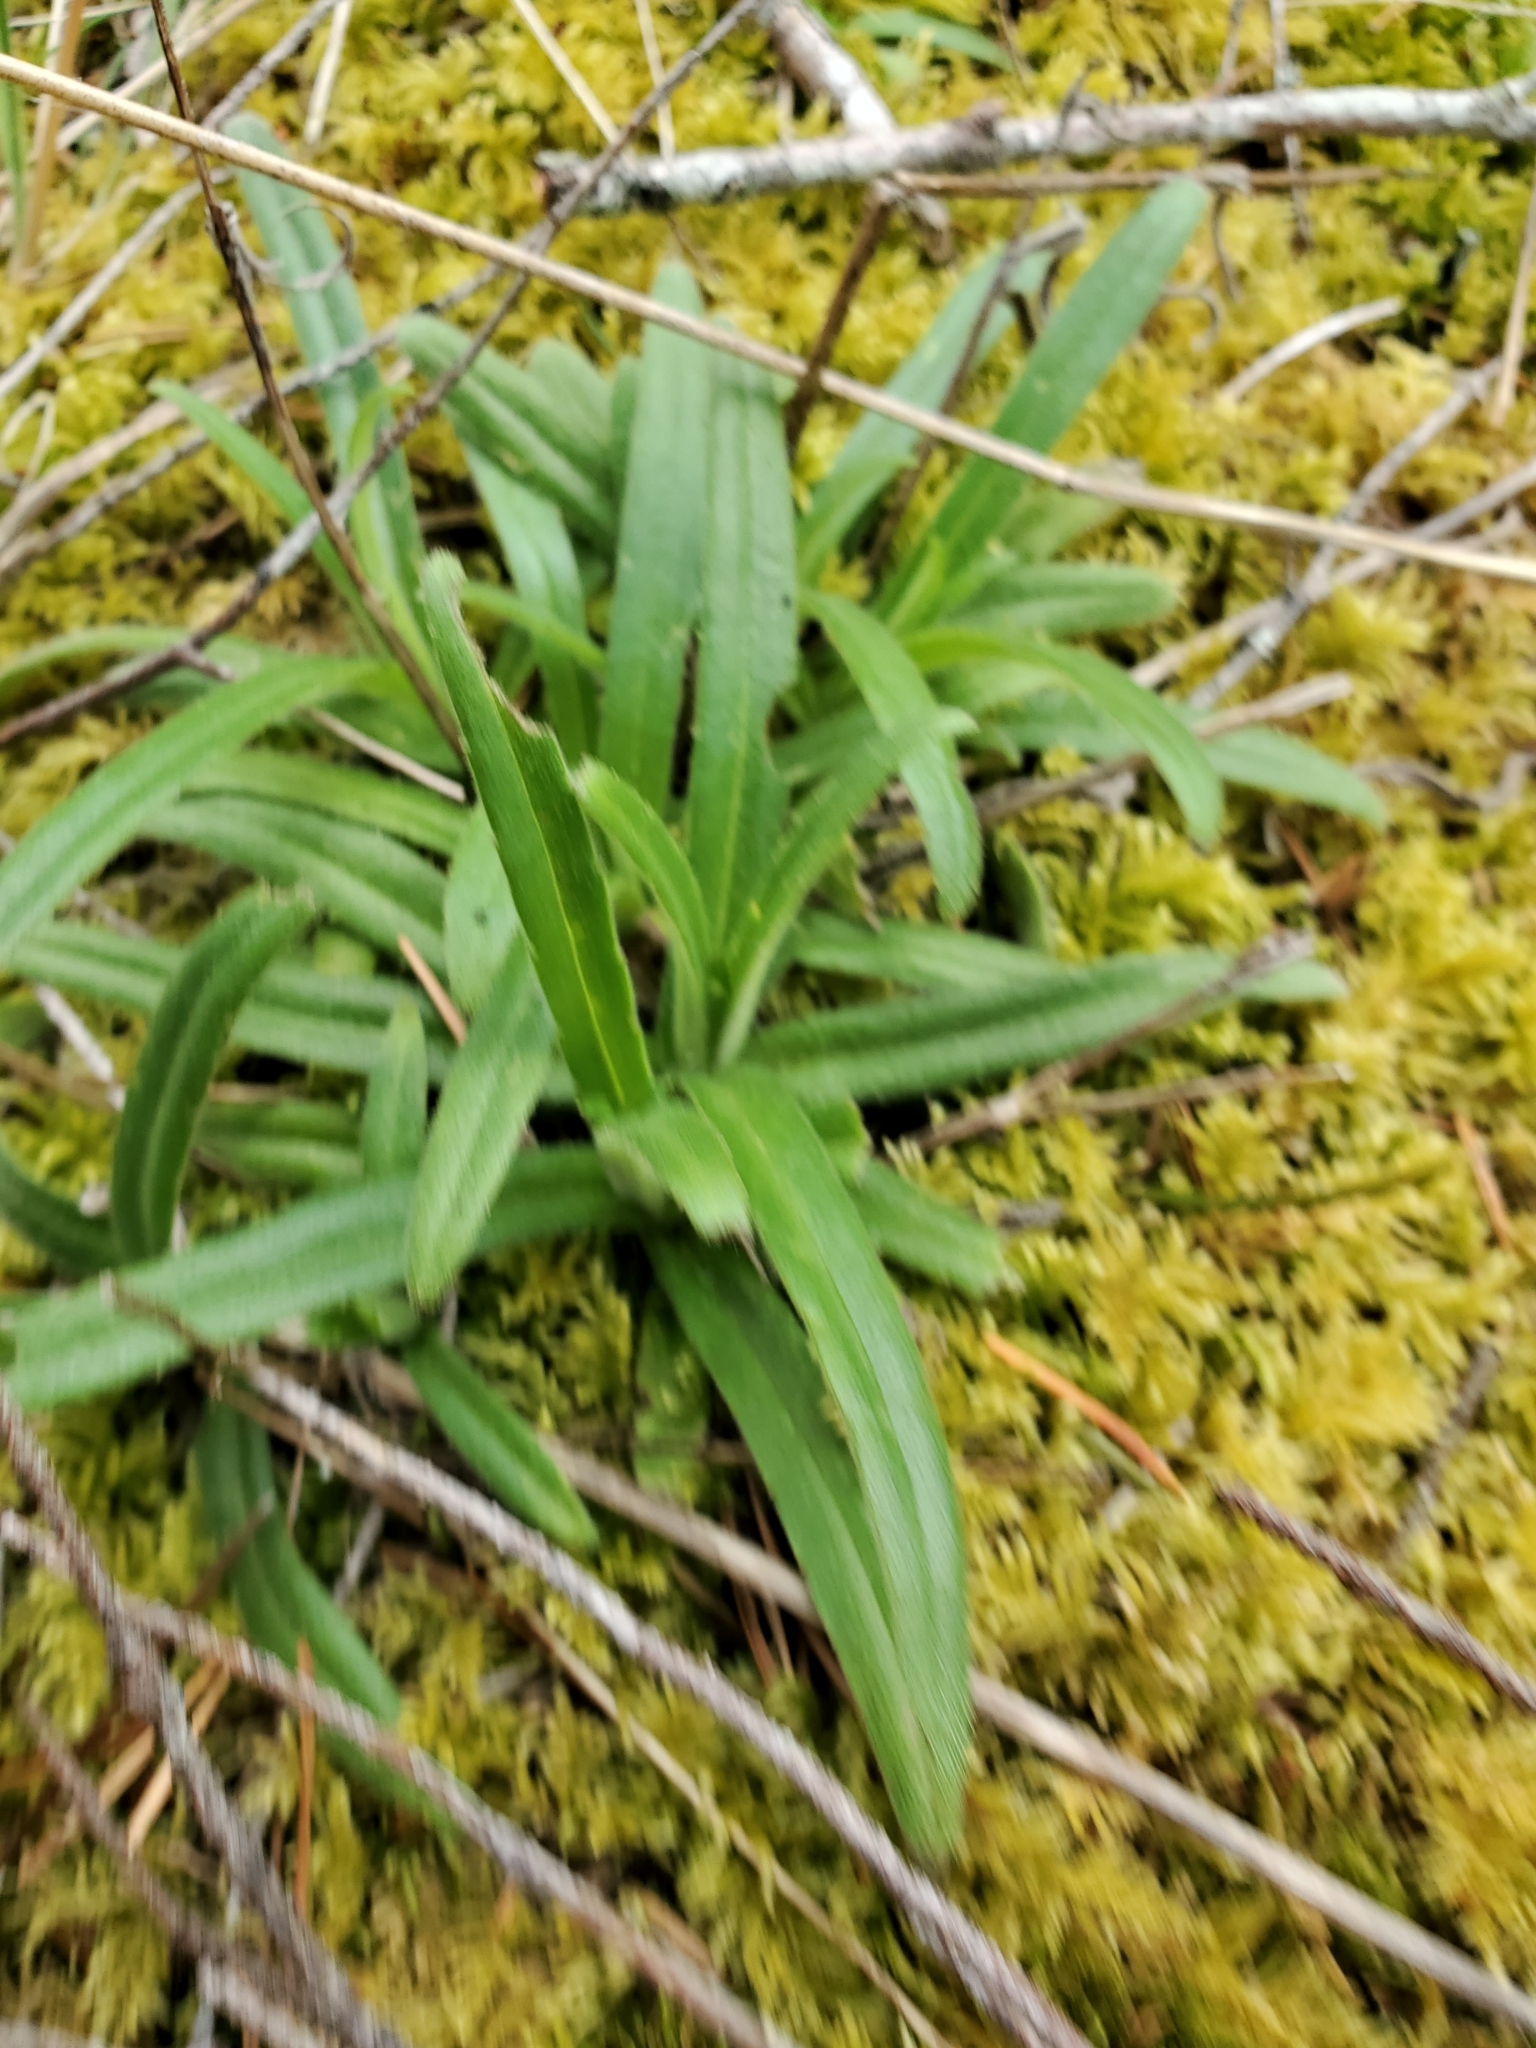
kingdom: Plantae
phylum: Tracheophyta
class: Magnoliopsida
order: Asterales
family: Asteraceae
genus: Anisocarpus
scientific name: Anisocarpus madioides
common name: Woodland madia
